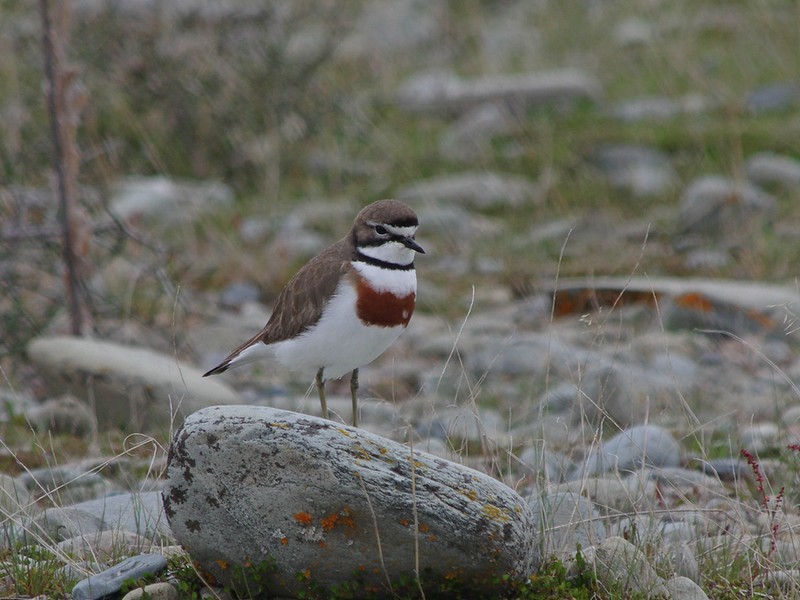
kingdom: Animalia
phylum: Chordata
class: Aves
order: Charadriiformes
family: Charadriidae
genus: Anarhynchus
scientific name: Anarhynchus
